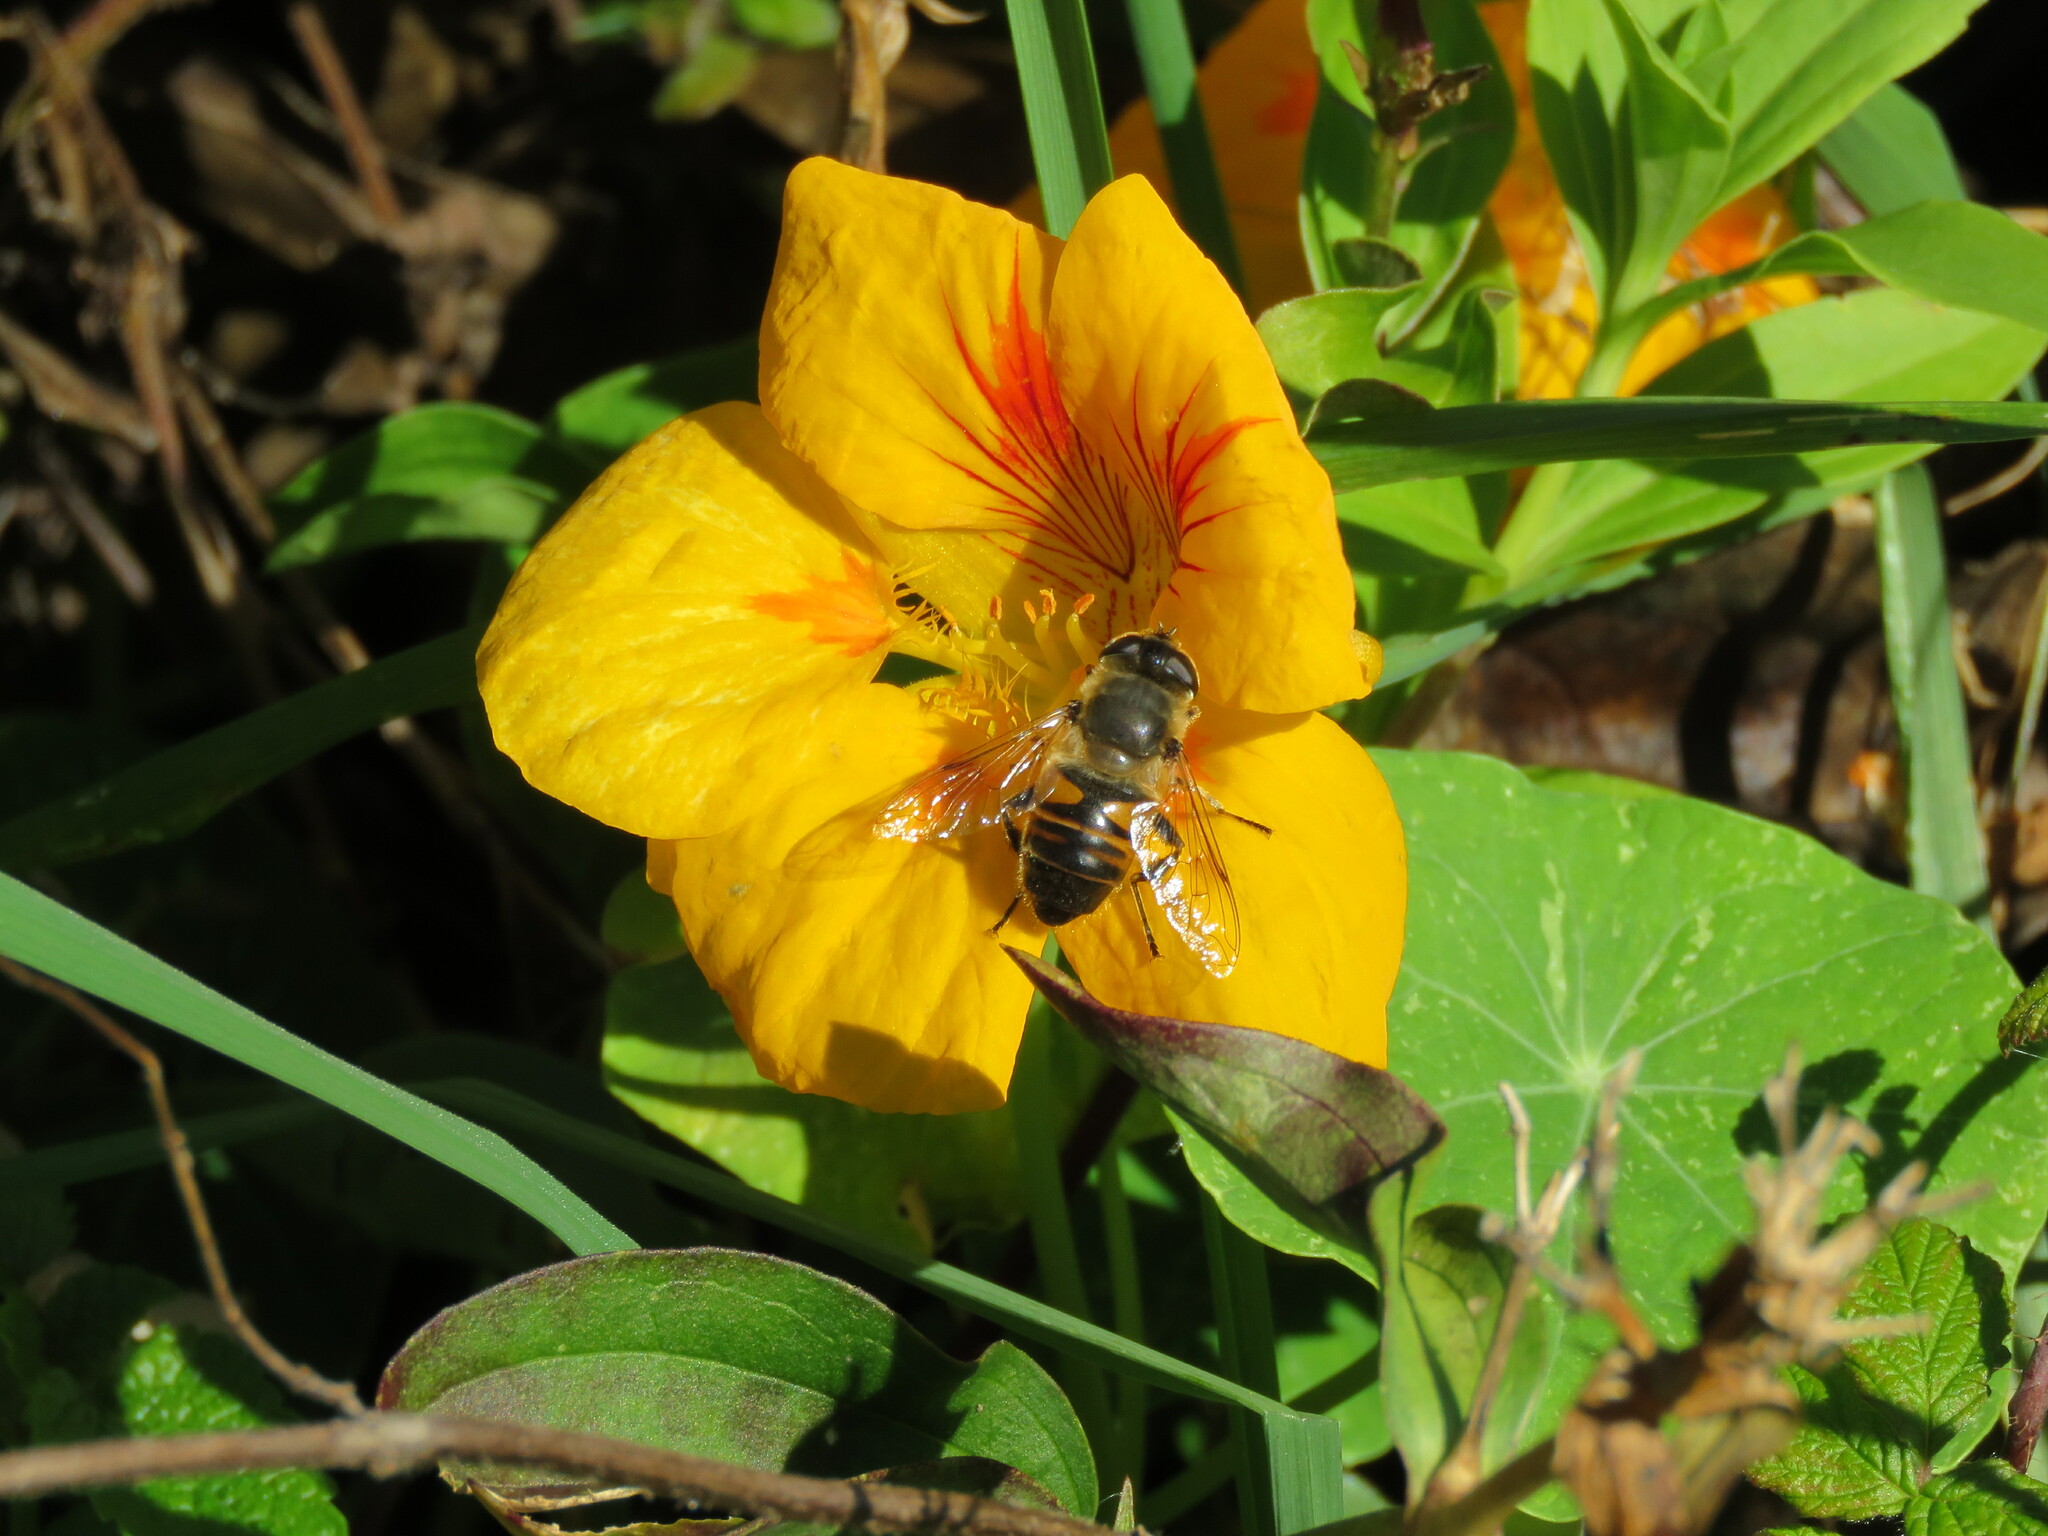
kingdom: Animalia
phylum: Arthropoda
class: Insecta
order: Diptera
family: Syrphidae
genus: Eristalis
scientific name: Eristalis tenax
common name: Drone fly
